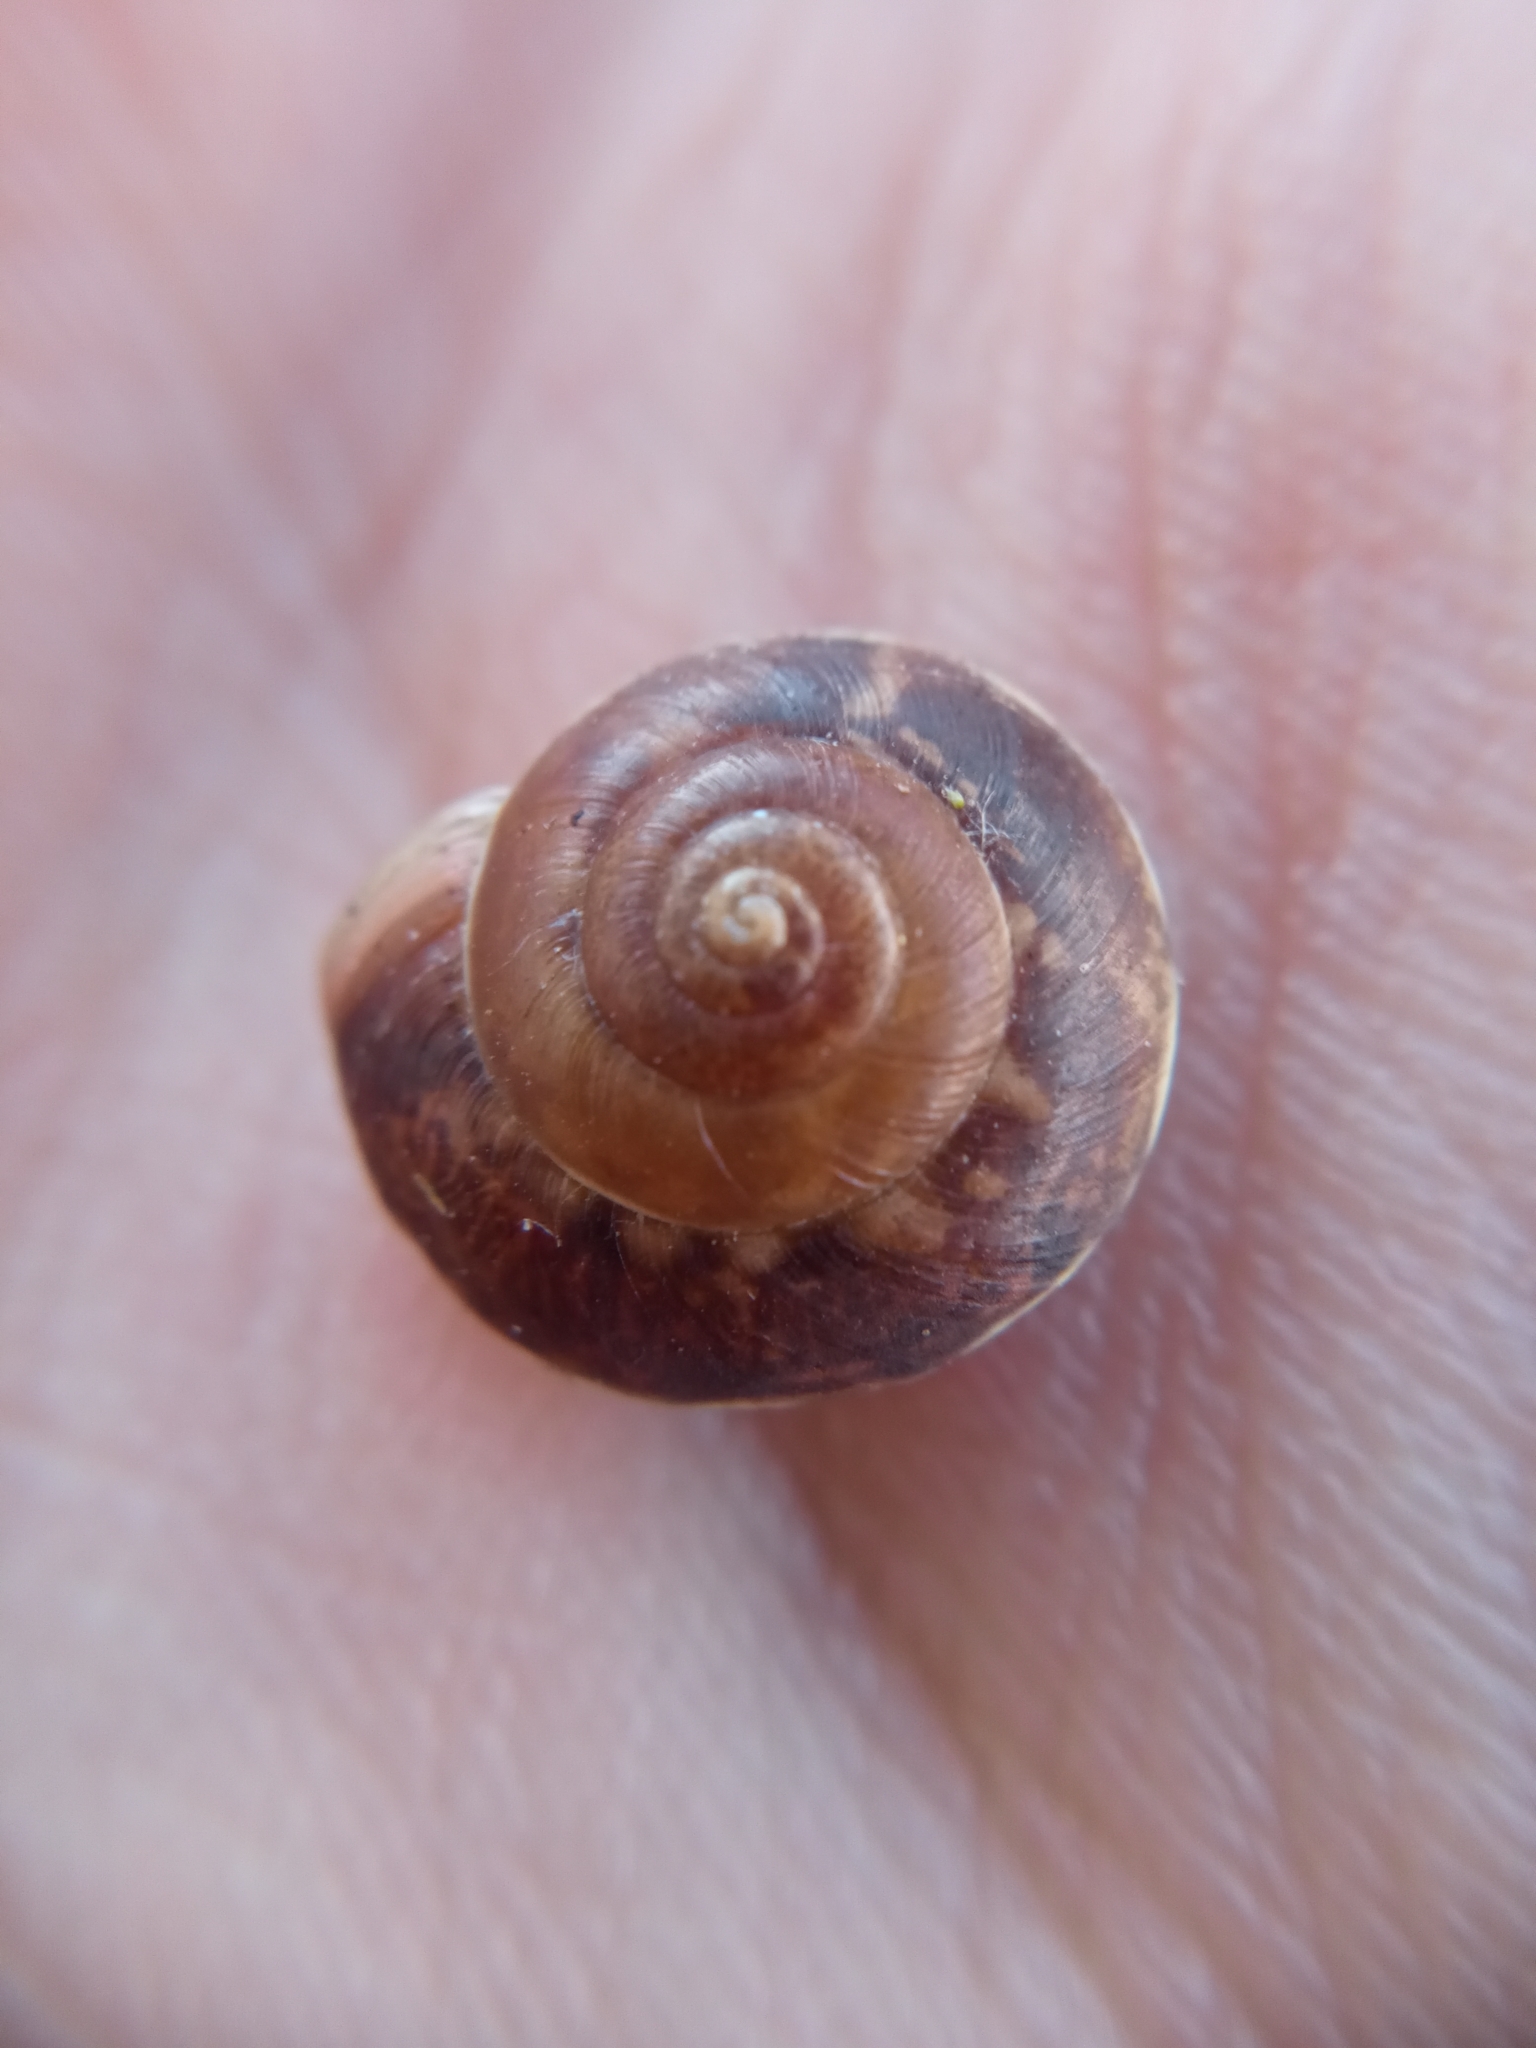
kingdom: Animalia
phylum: Mollusca
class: Gastropoda
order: Stylommatophora
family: Hygromiidae
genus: Hygromia
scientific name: Hygromia cinctella
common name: Girdled snail
